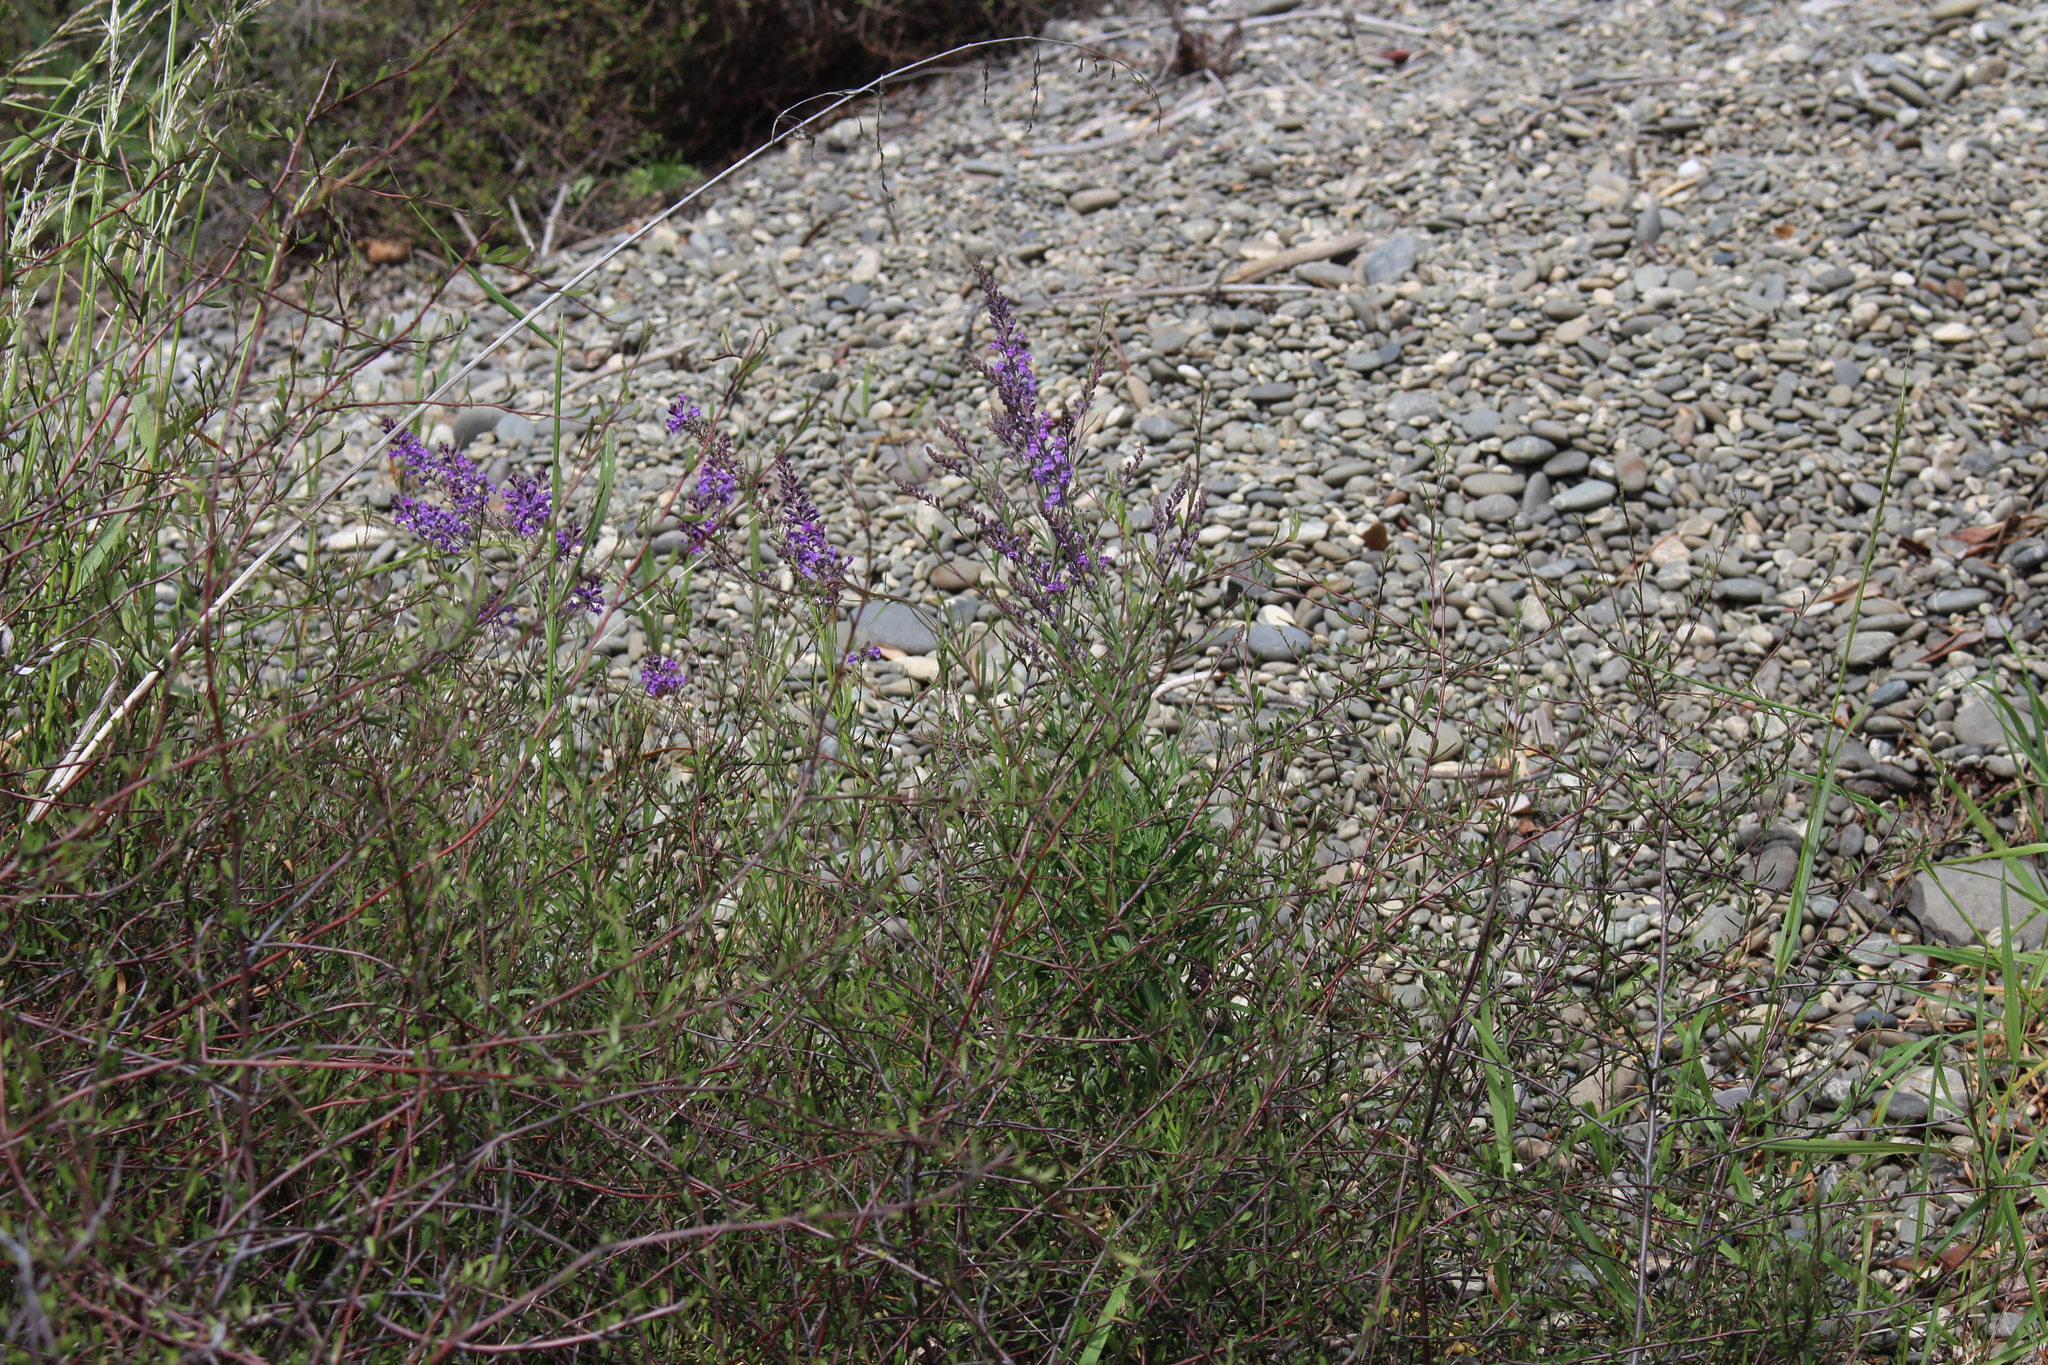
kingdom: Plantae
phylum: Tracheophyta
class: Magnoliopsida
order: Lamiales
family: Plantaginaceae
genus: Linaria
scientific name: Linaria purpurea
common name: Purple toadflax
